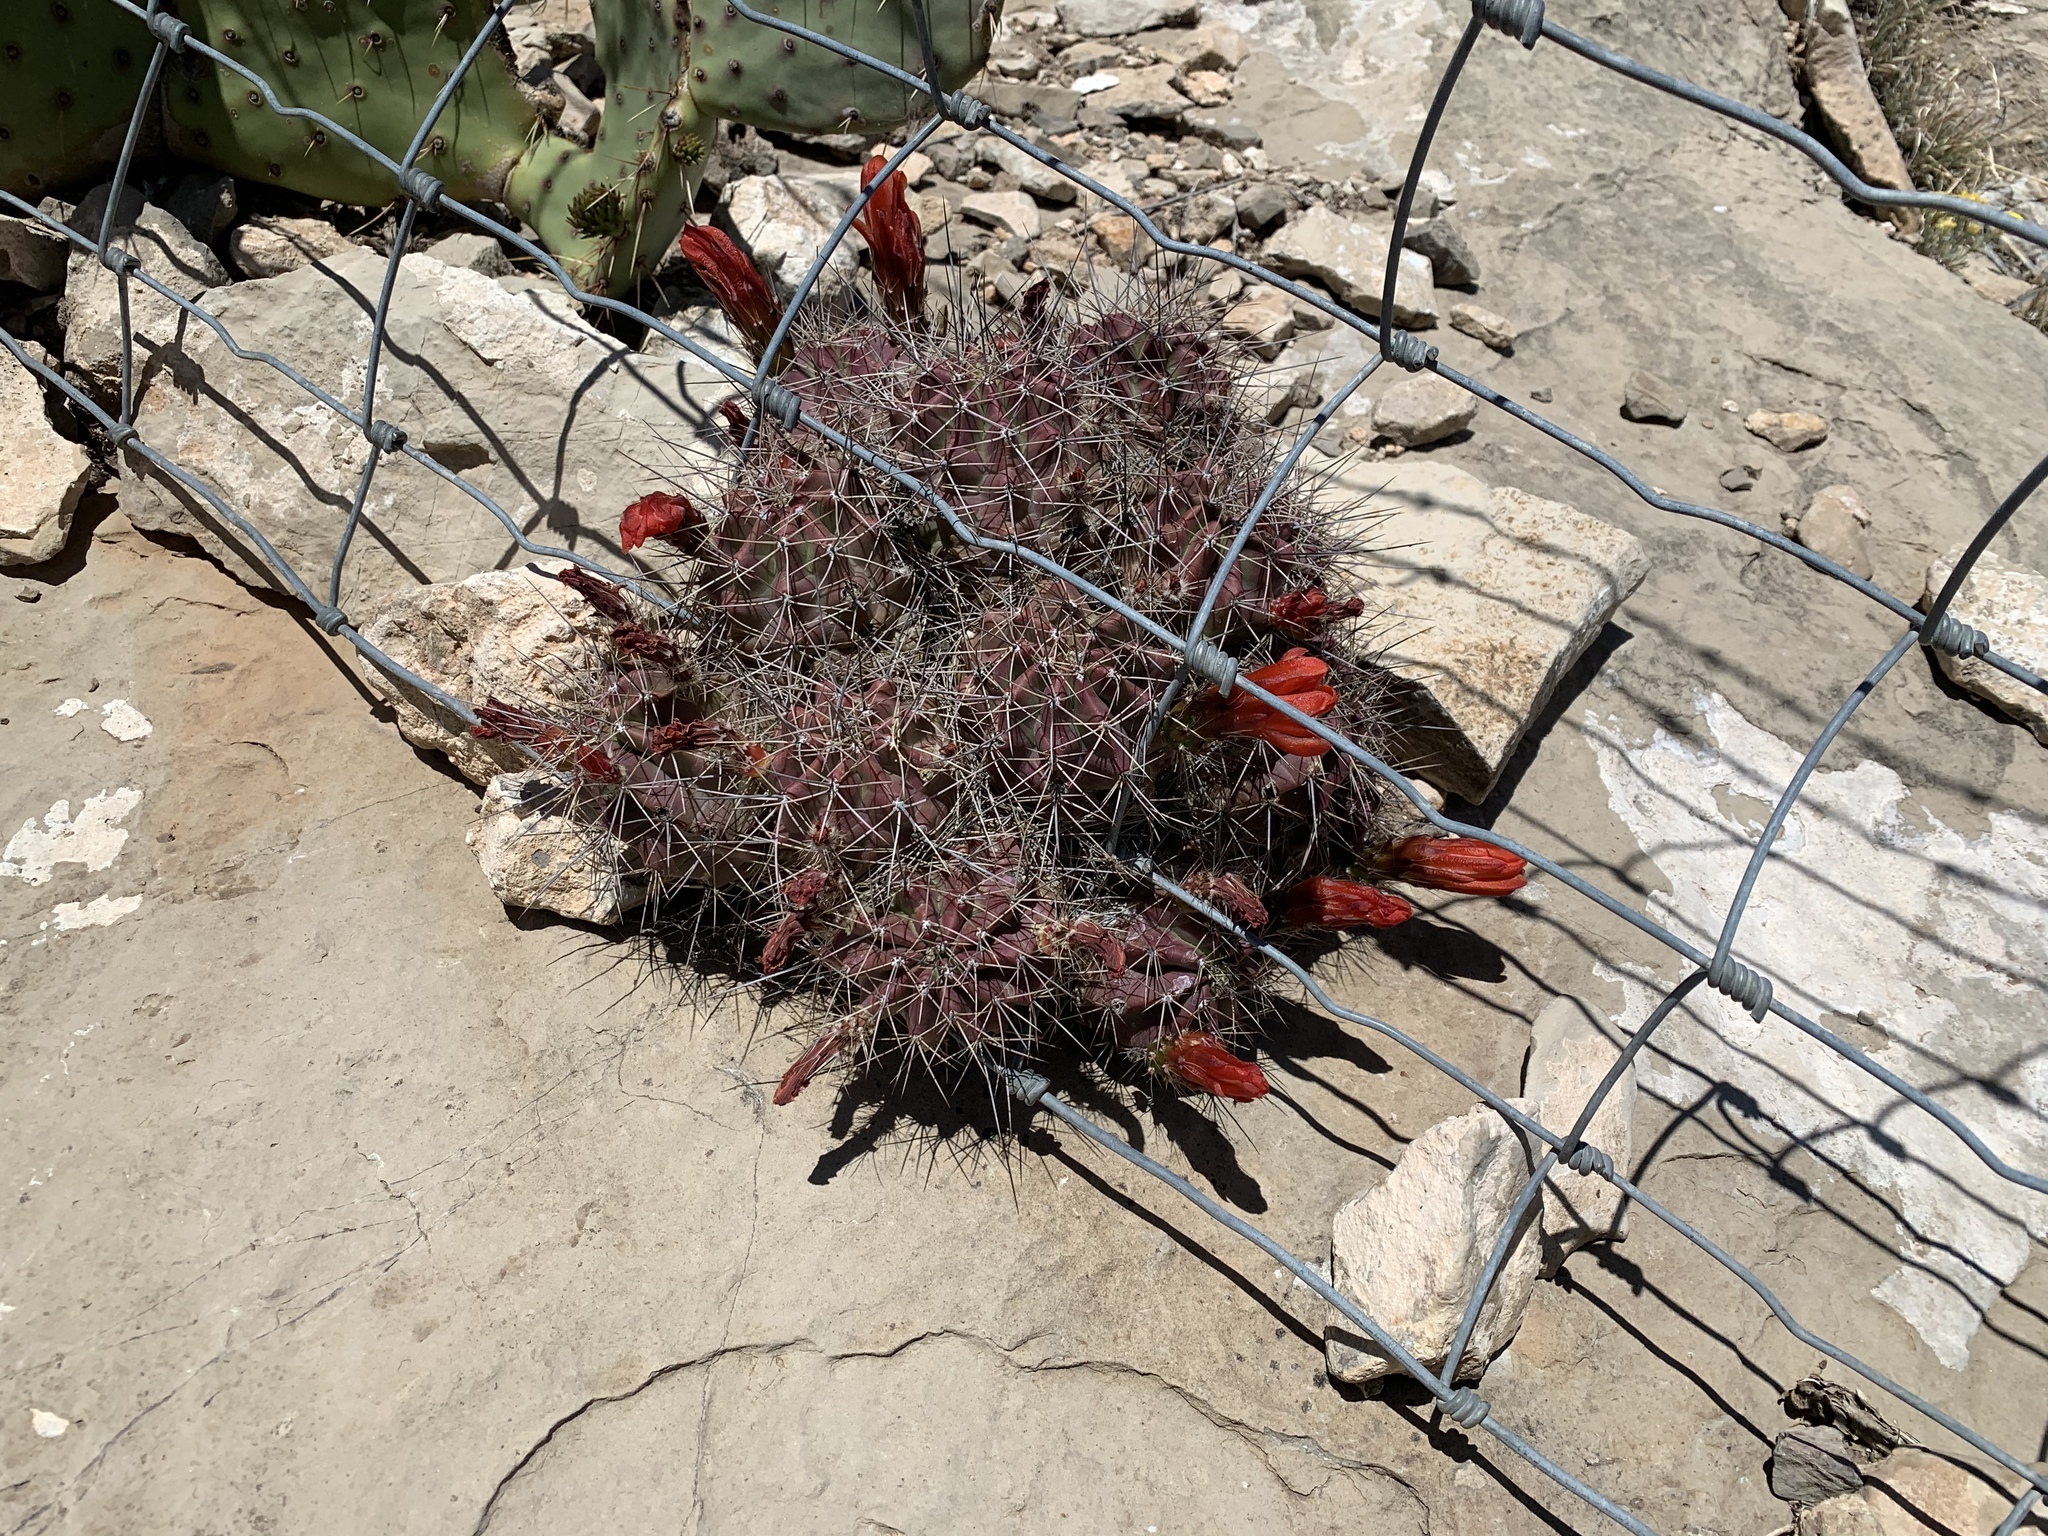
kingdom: Plantae
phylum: Tracheophyta
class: Magnoliopsida
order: Caryophyllales
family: Cactaceae
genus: Echinocereus
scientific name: Echinocereus coccineus
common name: Scarlet hedgehog cactus
